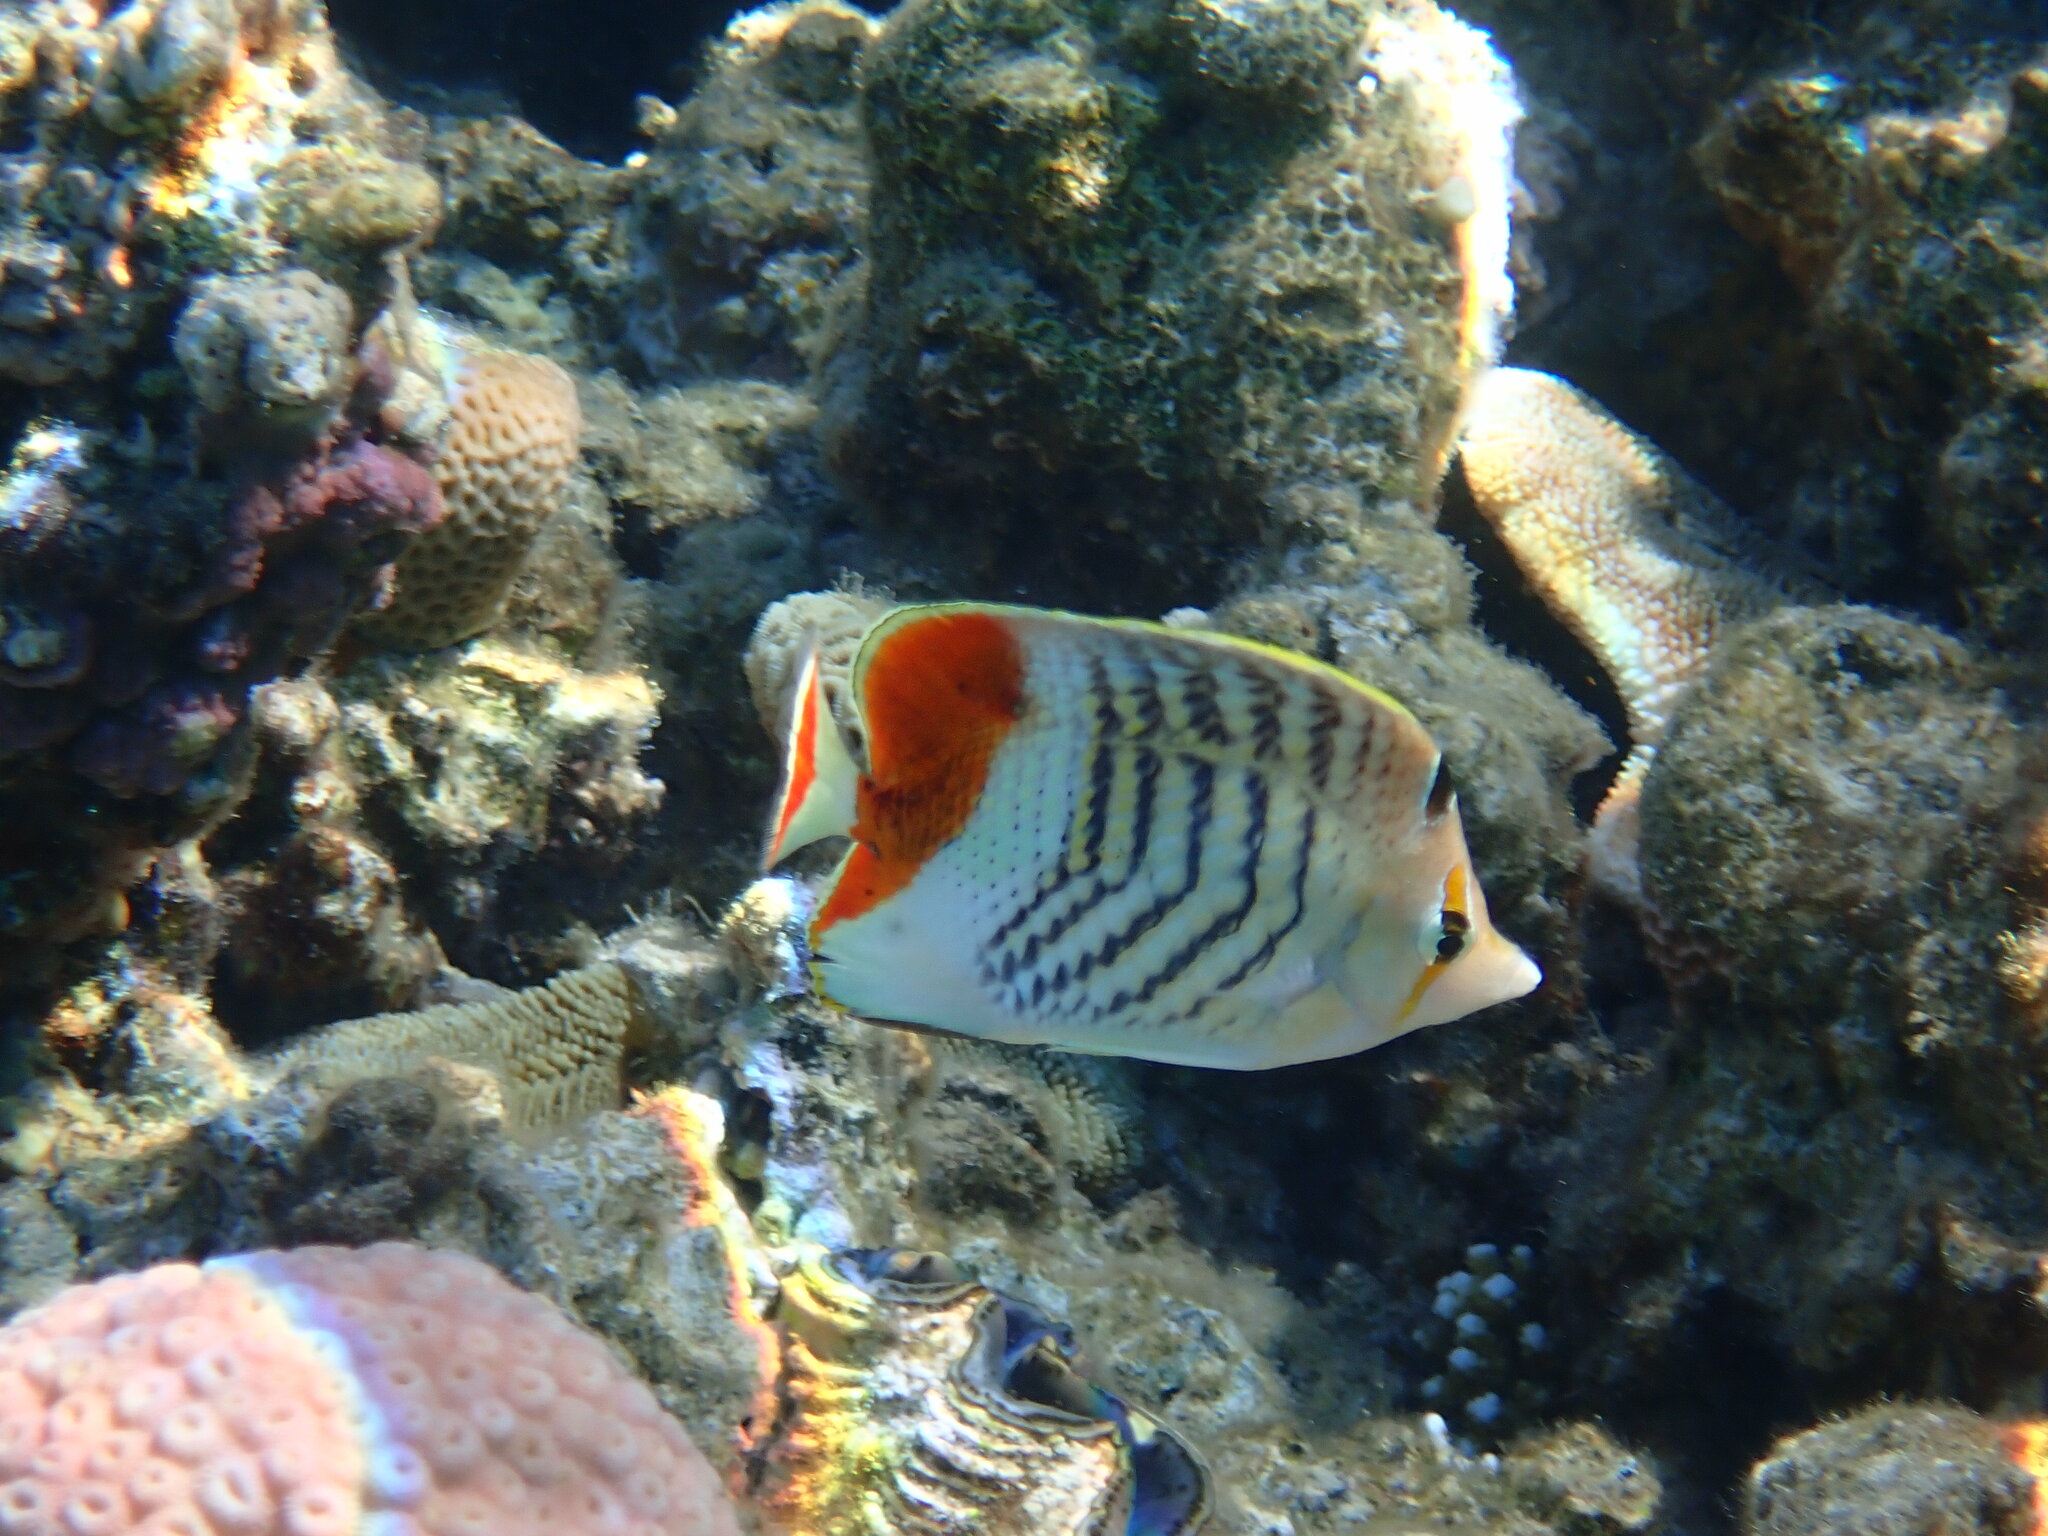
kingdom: Animalia
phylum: Chordata
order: Perciformes
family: Chaetodontidae
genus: Chaetodon
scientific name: Chaetodon paucifasciatus
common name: Crown butterflyfish
